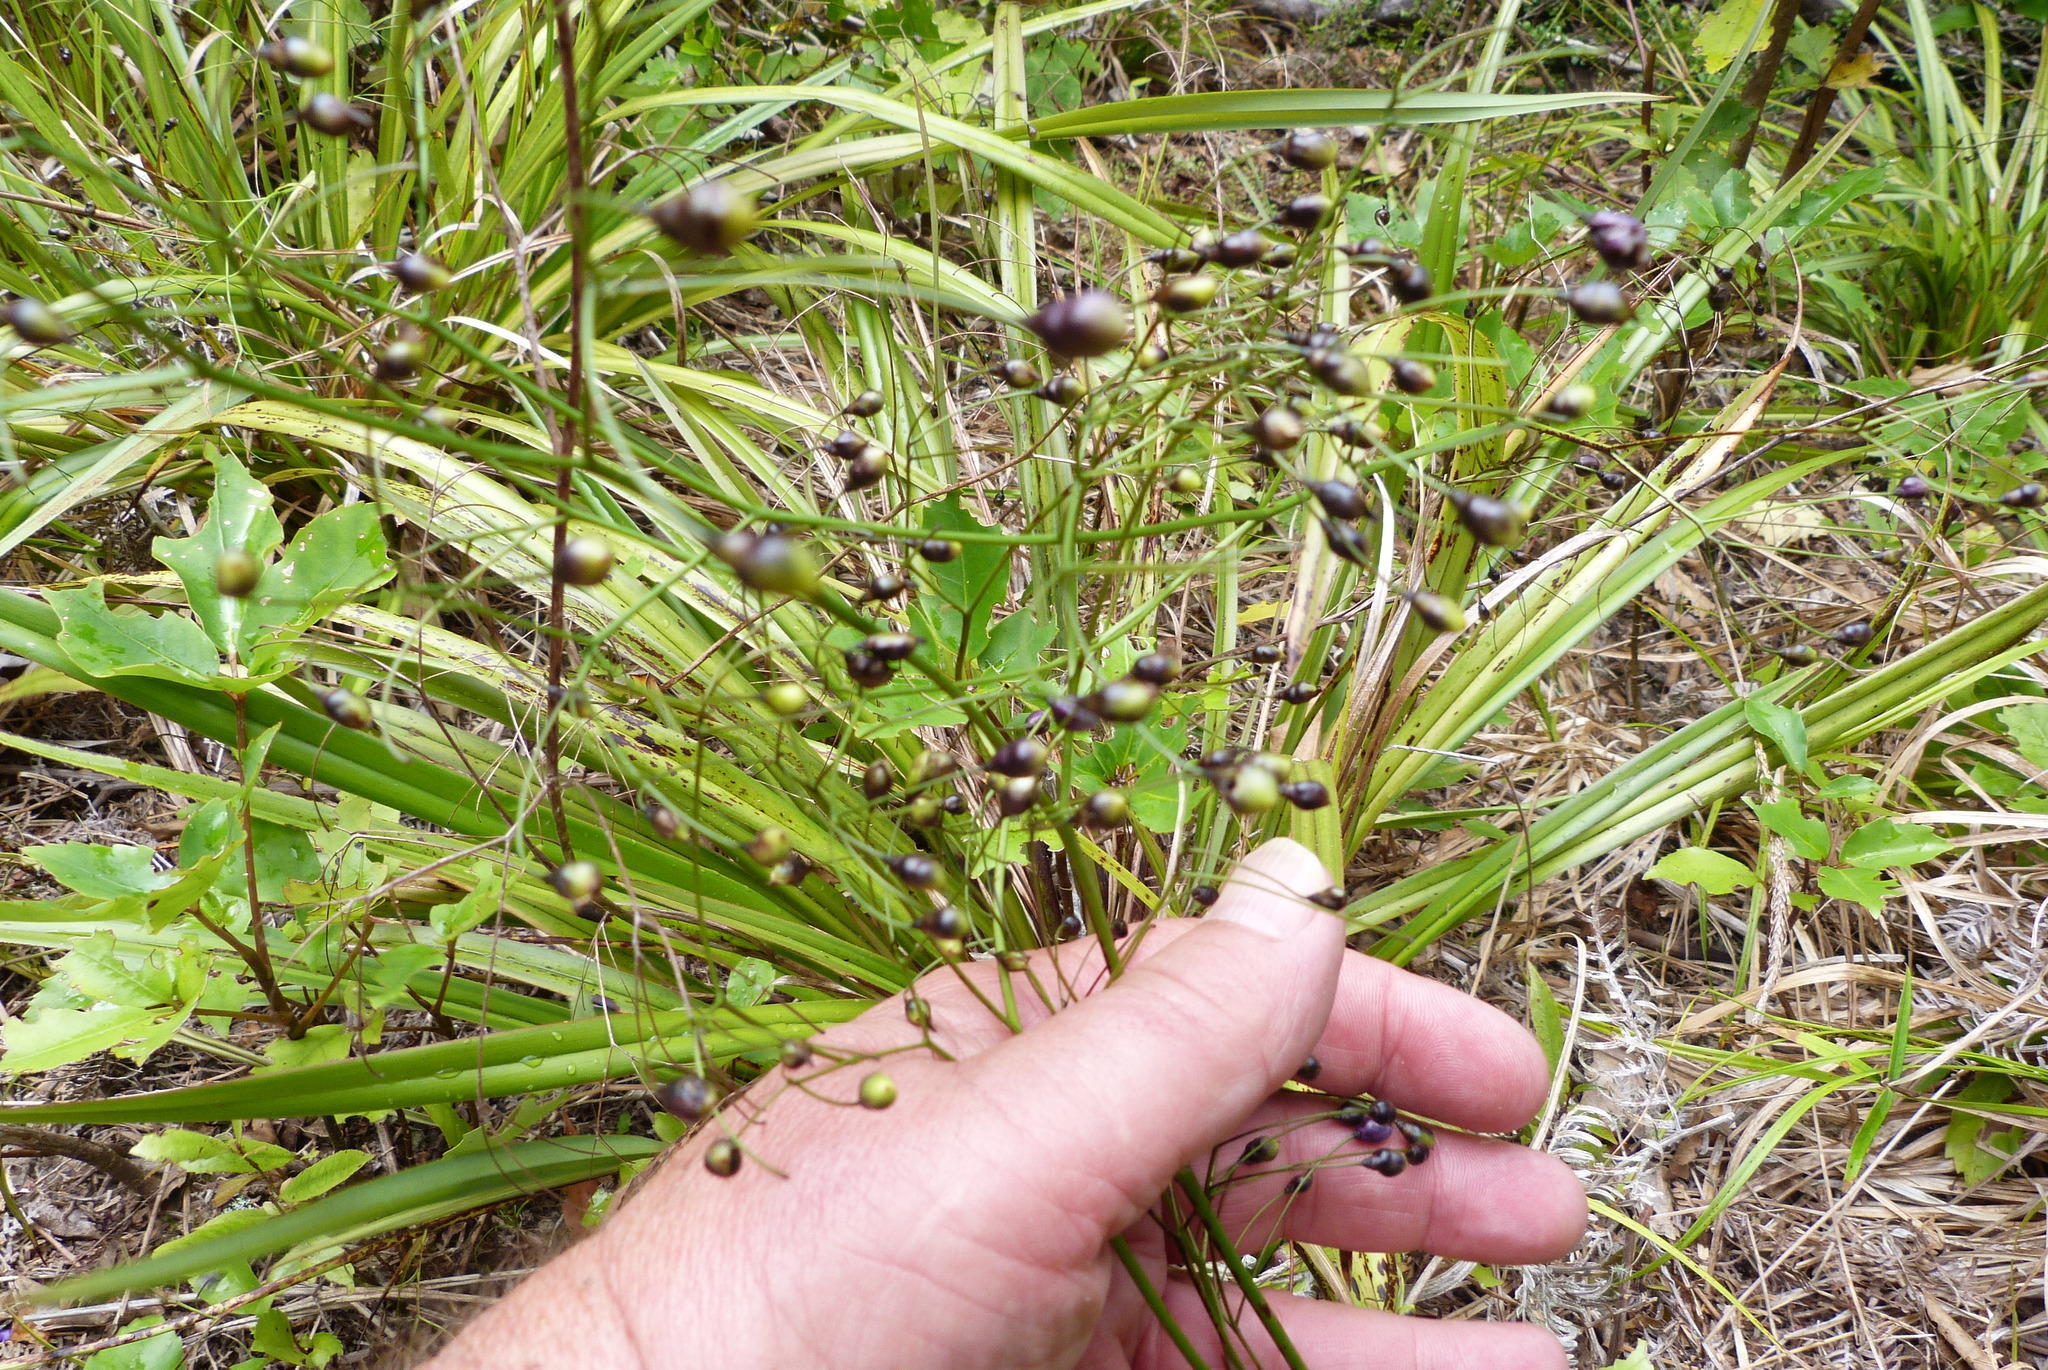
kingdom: Plantae
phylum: Tracheophyta
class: Liliopsida
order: Asparagales
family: Asphodelaceae
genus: Dianella
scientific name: Dianella nigra
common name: New zealand-blueberry
